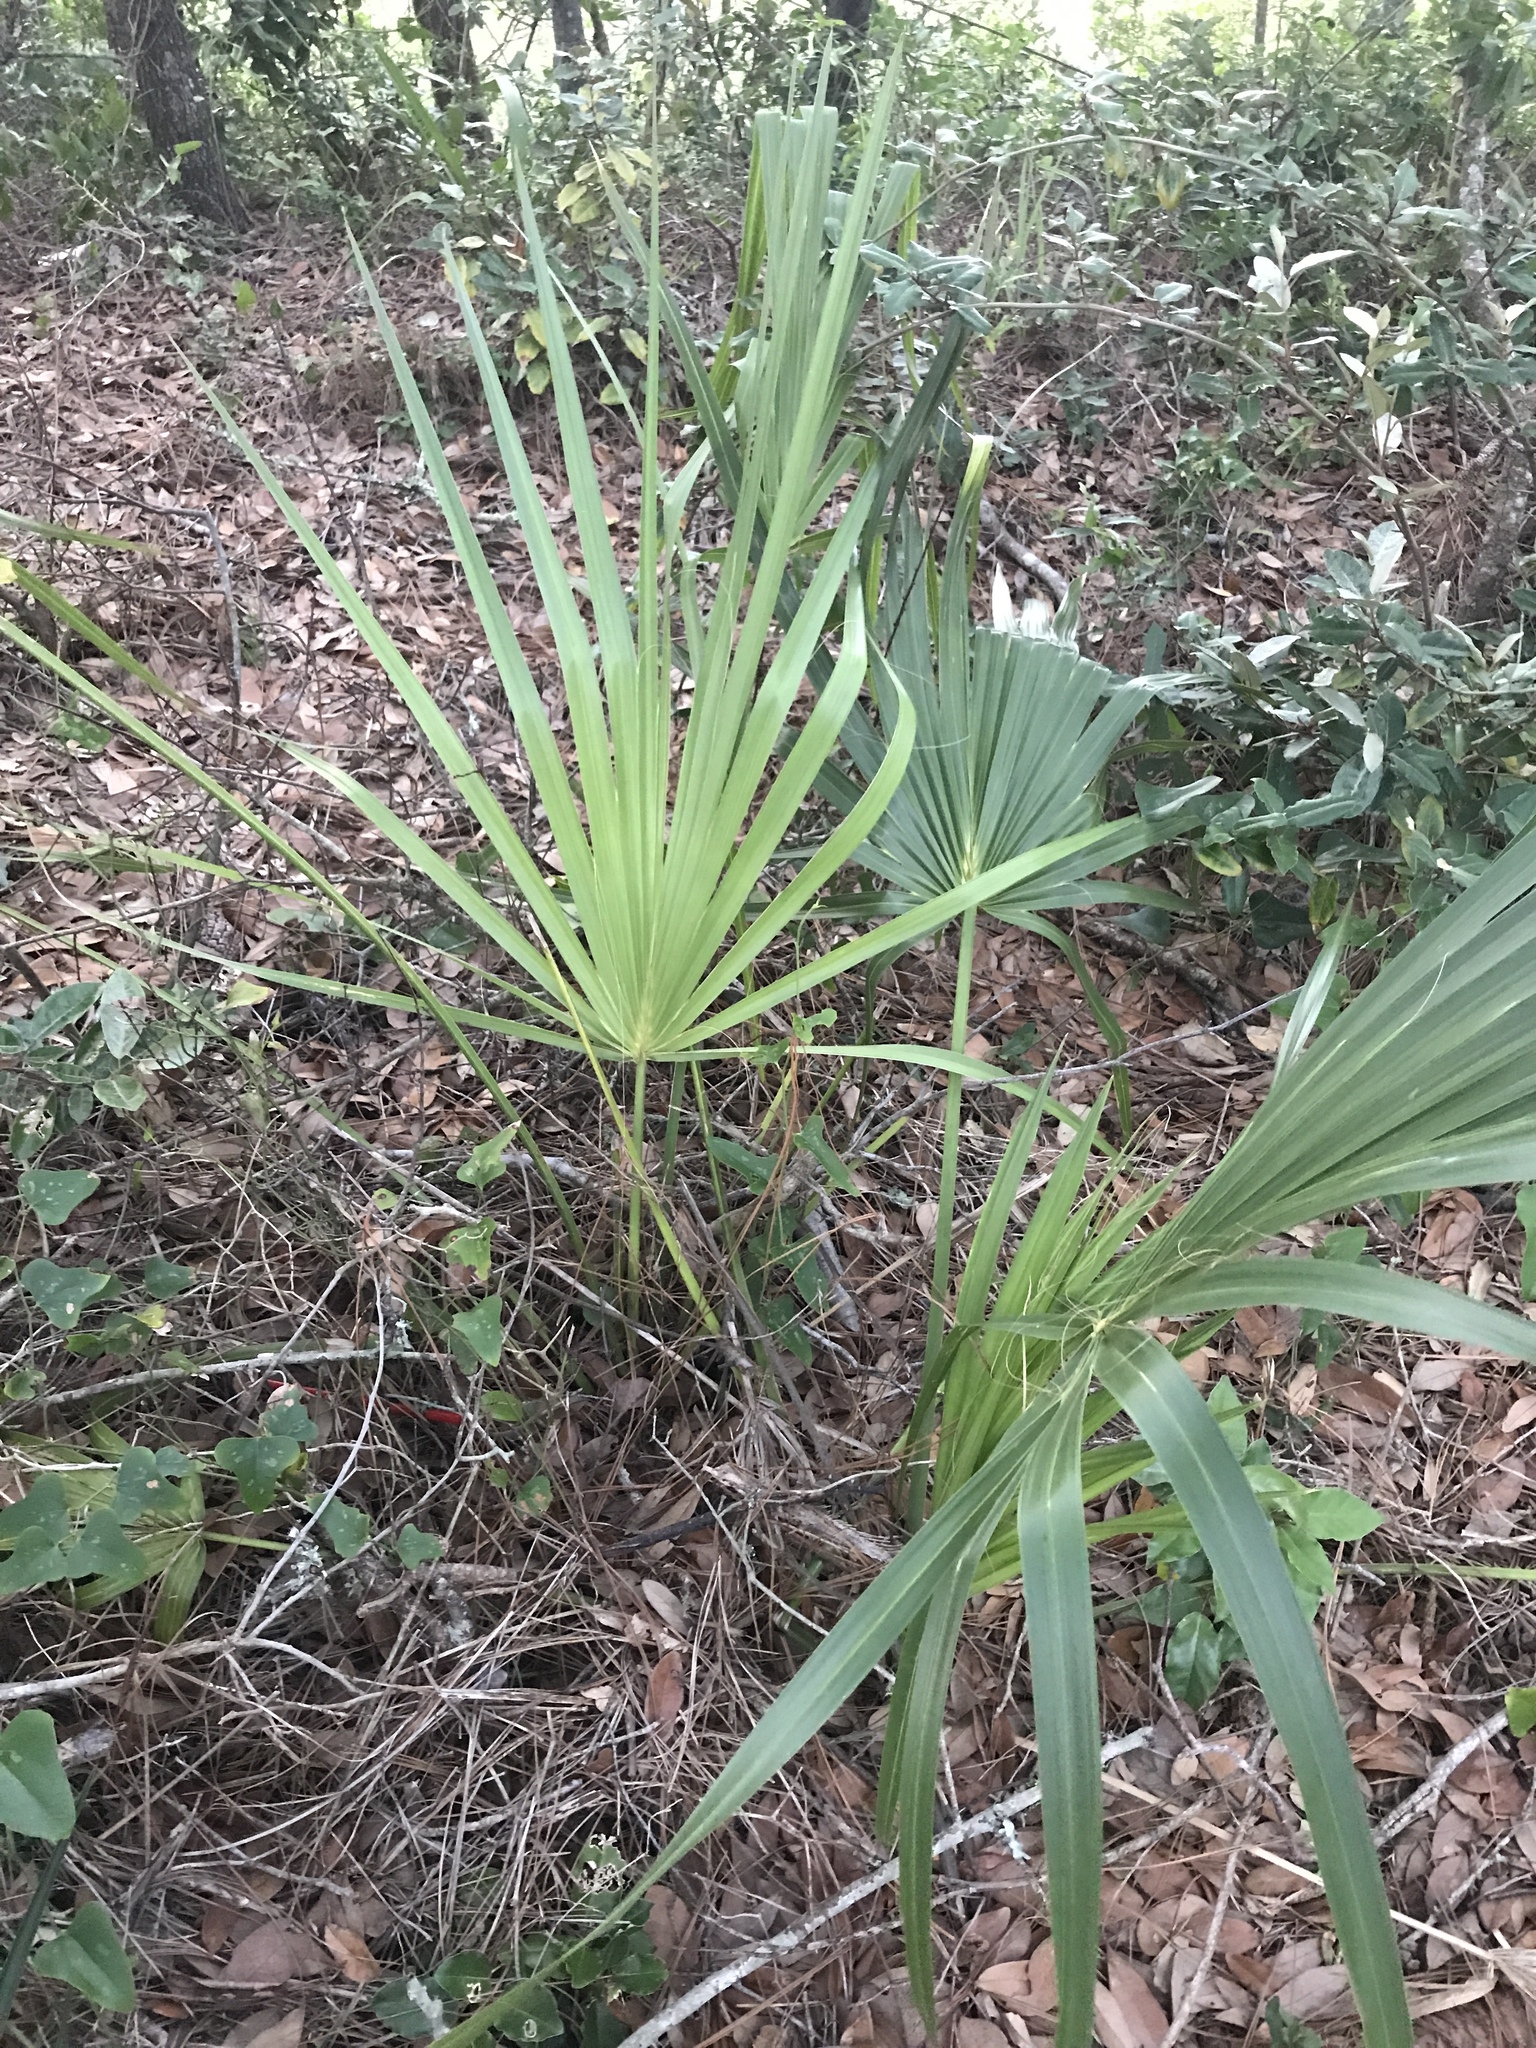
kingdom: Plantae
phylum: Tracheophyta
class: Liliopsida
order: Arecales
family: Arecaceae
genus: Sabal
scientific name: Sabal minor
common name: Dwarf palmetto
